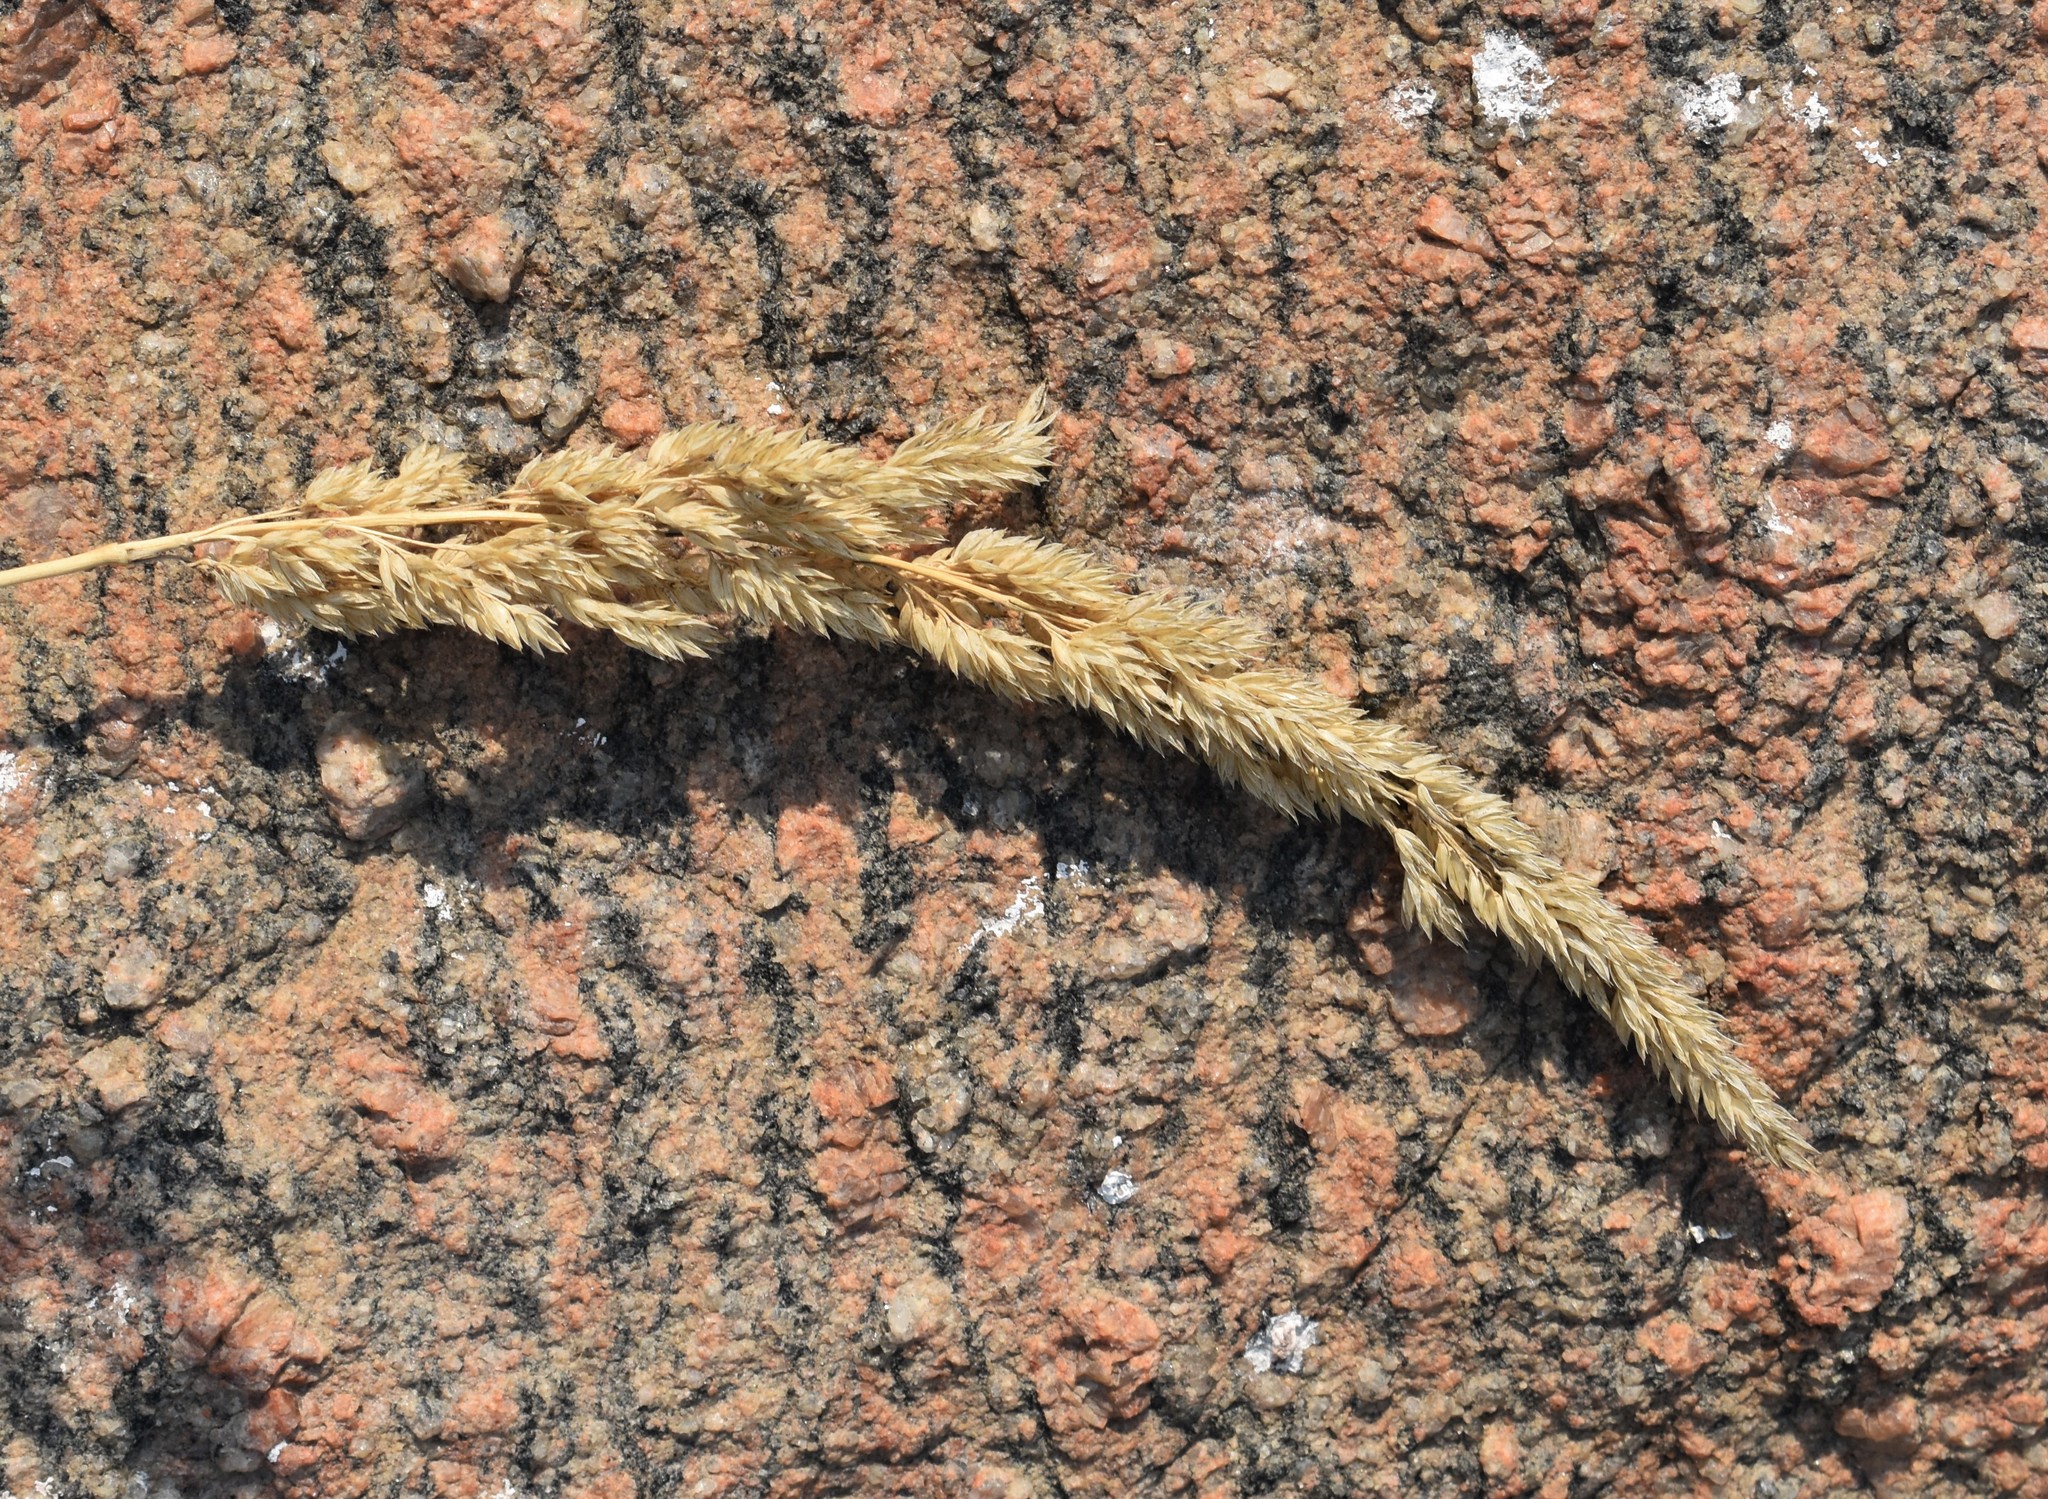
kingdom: Plantae
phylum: Tracheophyta
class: Liliopsida
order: Poales
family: Poaceae
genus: Phalaris
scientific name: Phalaris arundinacea
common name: Reed canary-grass
